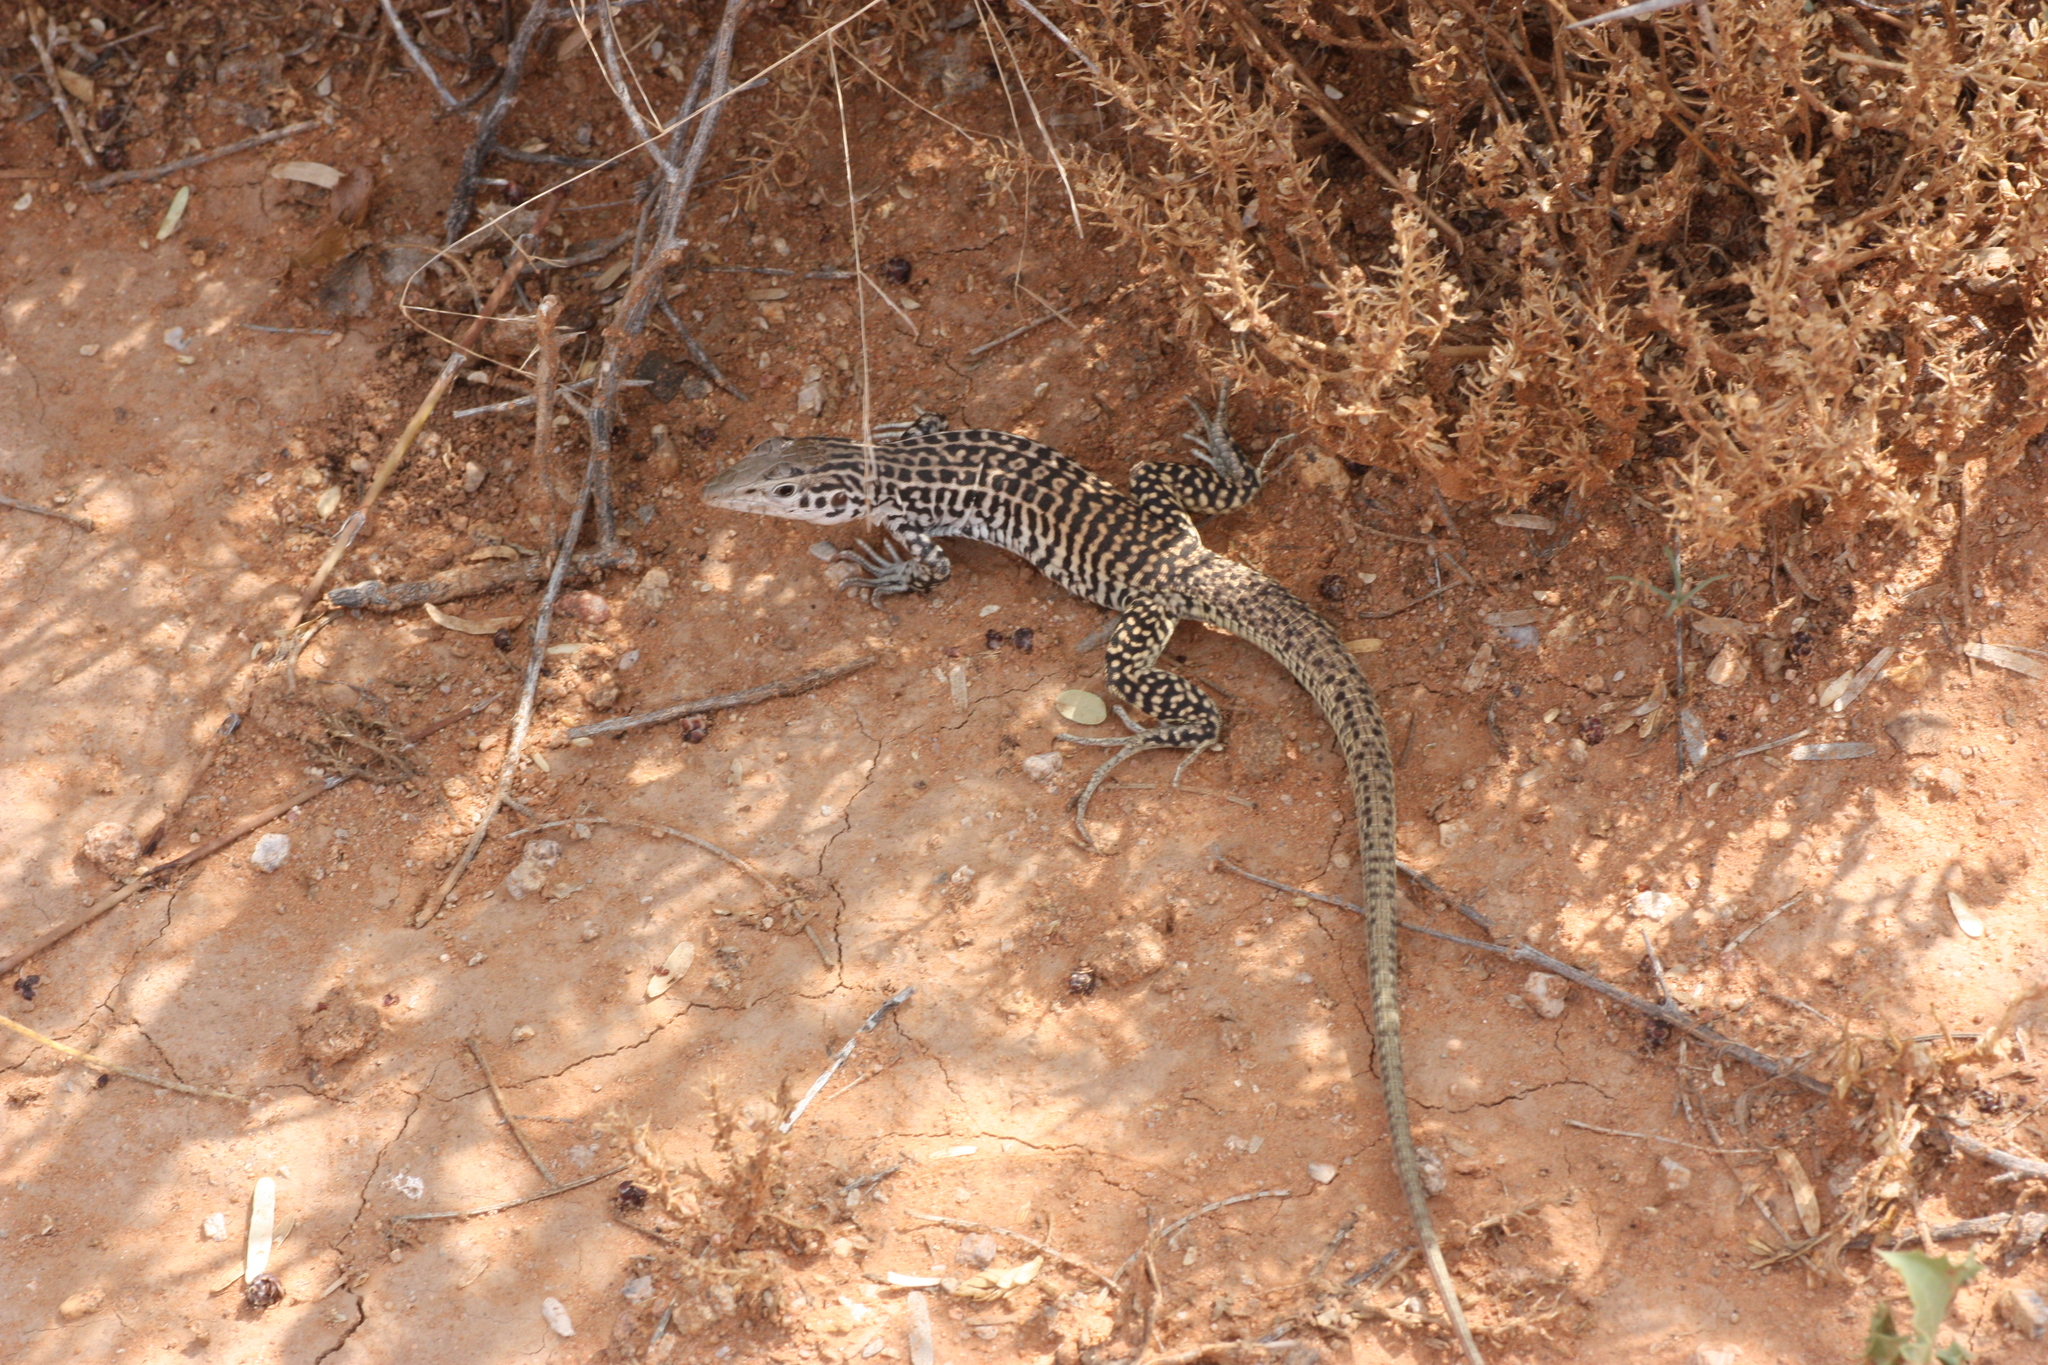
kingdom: Animalia
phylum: Chordata
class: Squamata
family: Teiidae
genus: Aspidoscelis
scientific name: Aspidoscelis tesselatus
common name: Common checkered whiptail [tesselata]
